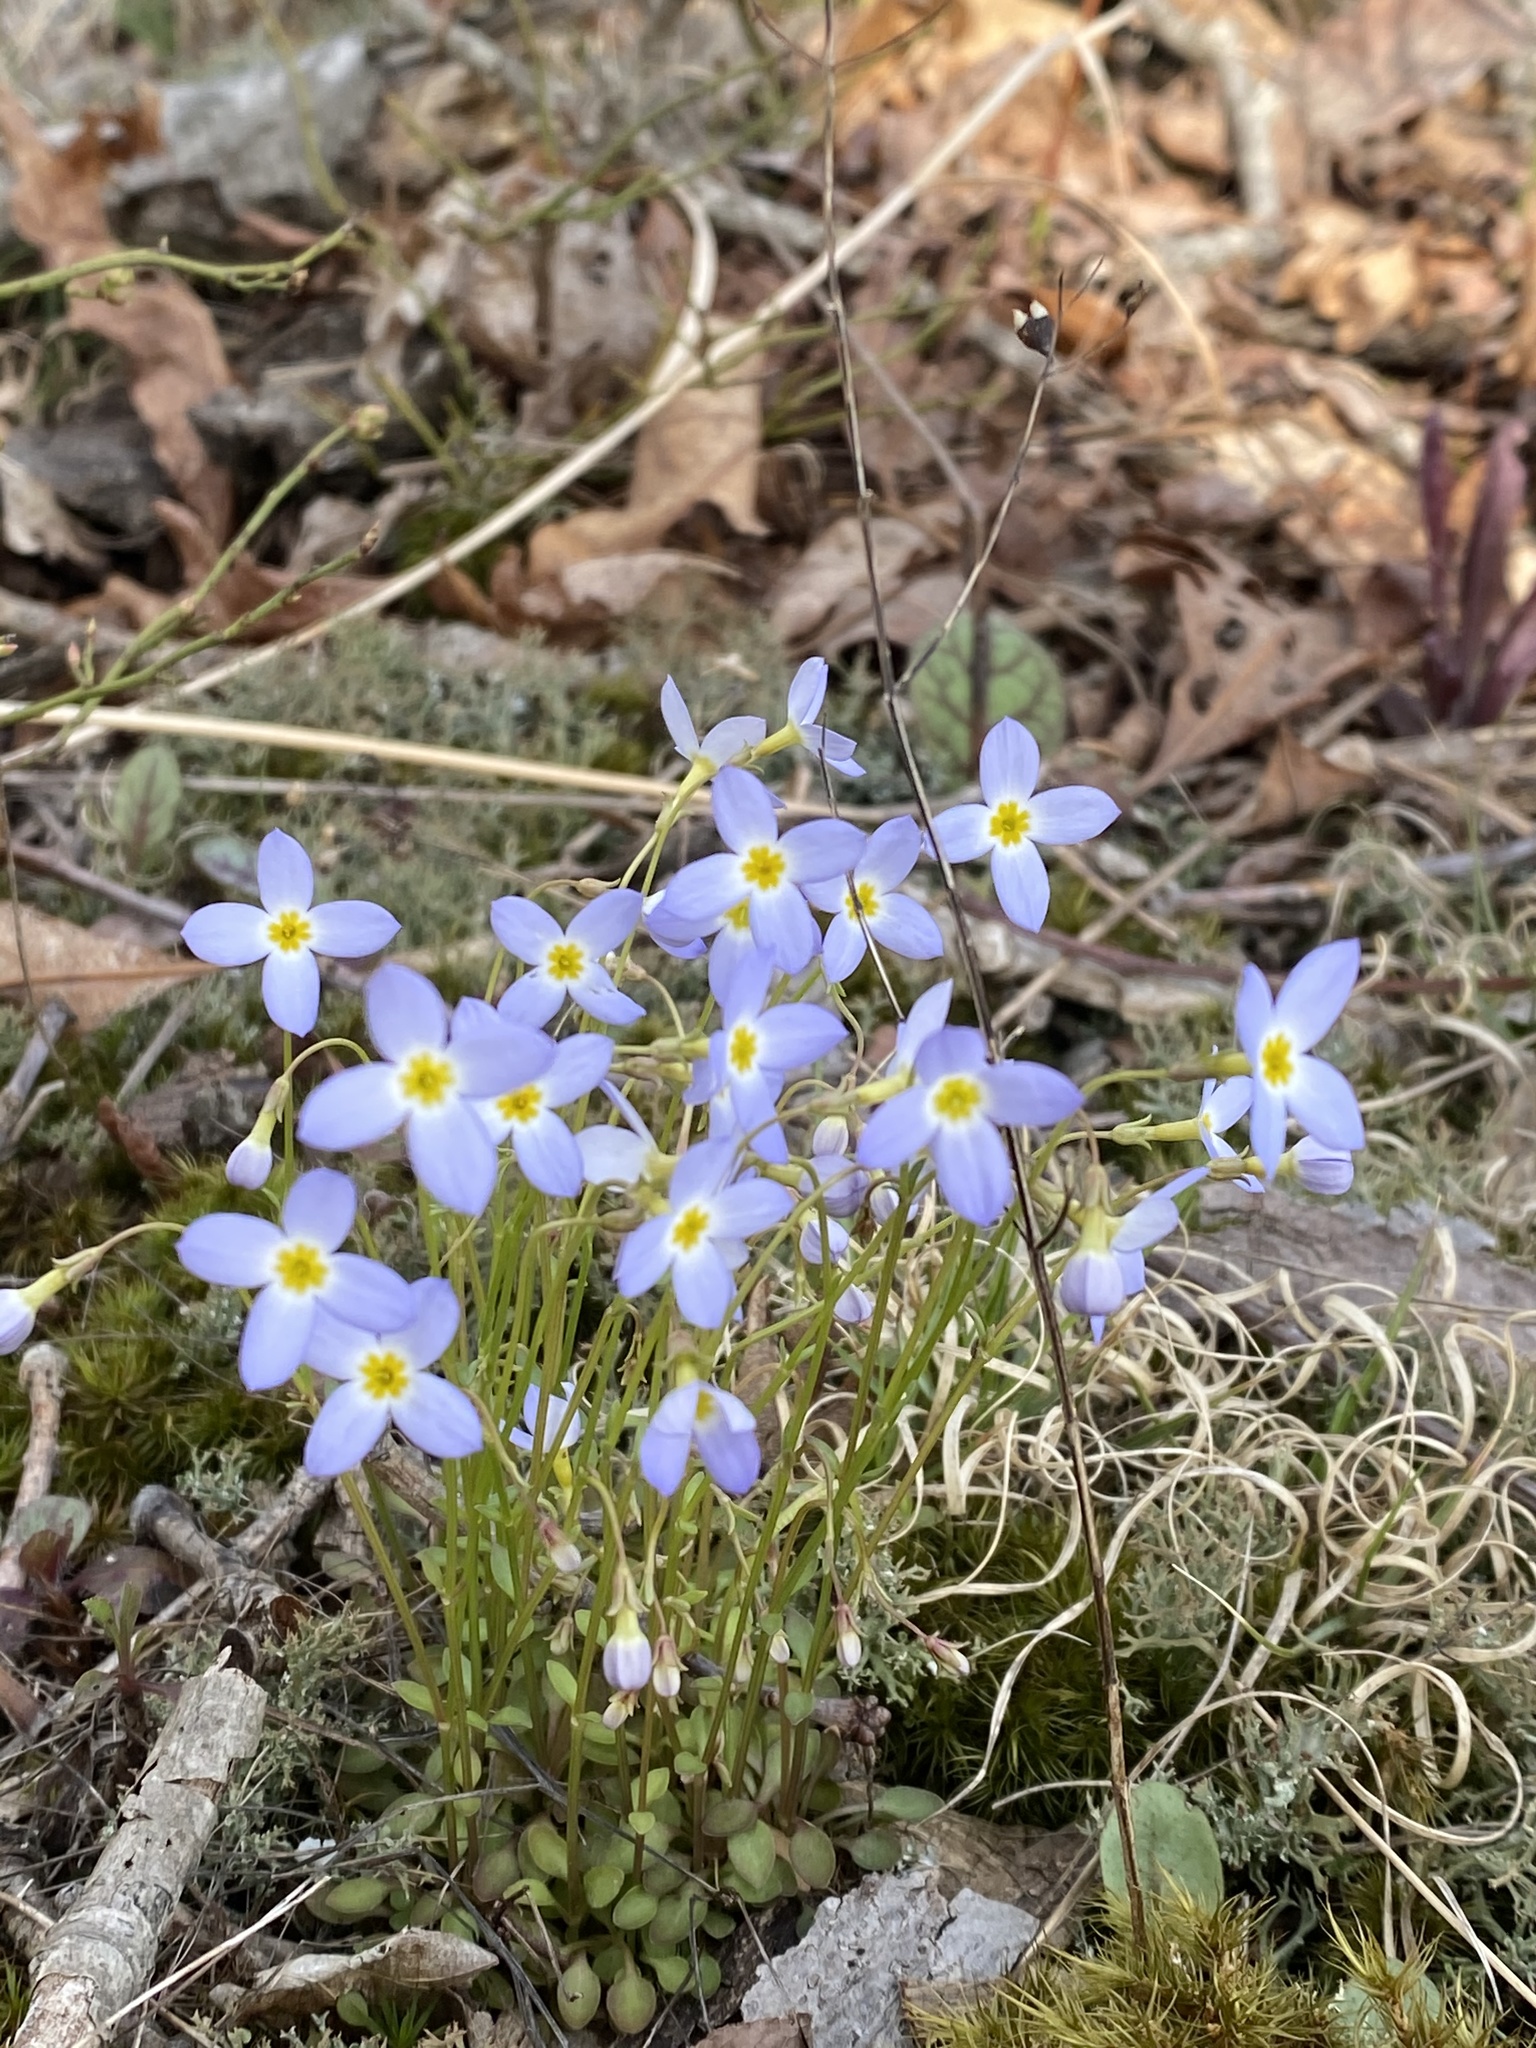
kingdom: Plantae
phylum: Tracheophyta
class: Magnoliopsida
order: Gentianales
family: Rubiaceae
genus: Houstonia
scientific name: Houstonia caerulea
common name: Bluets
